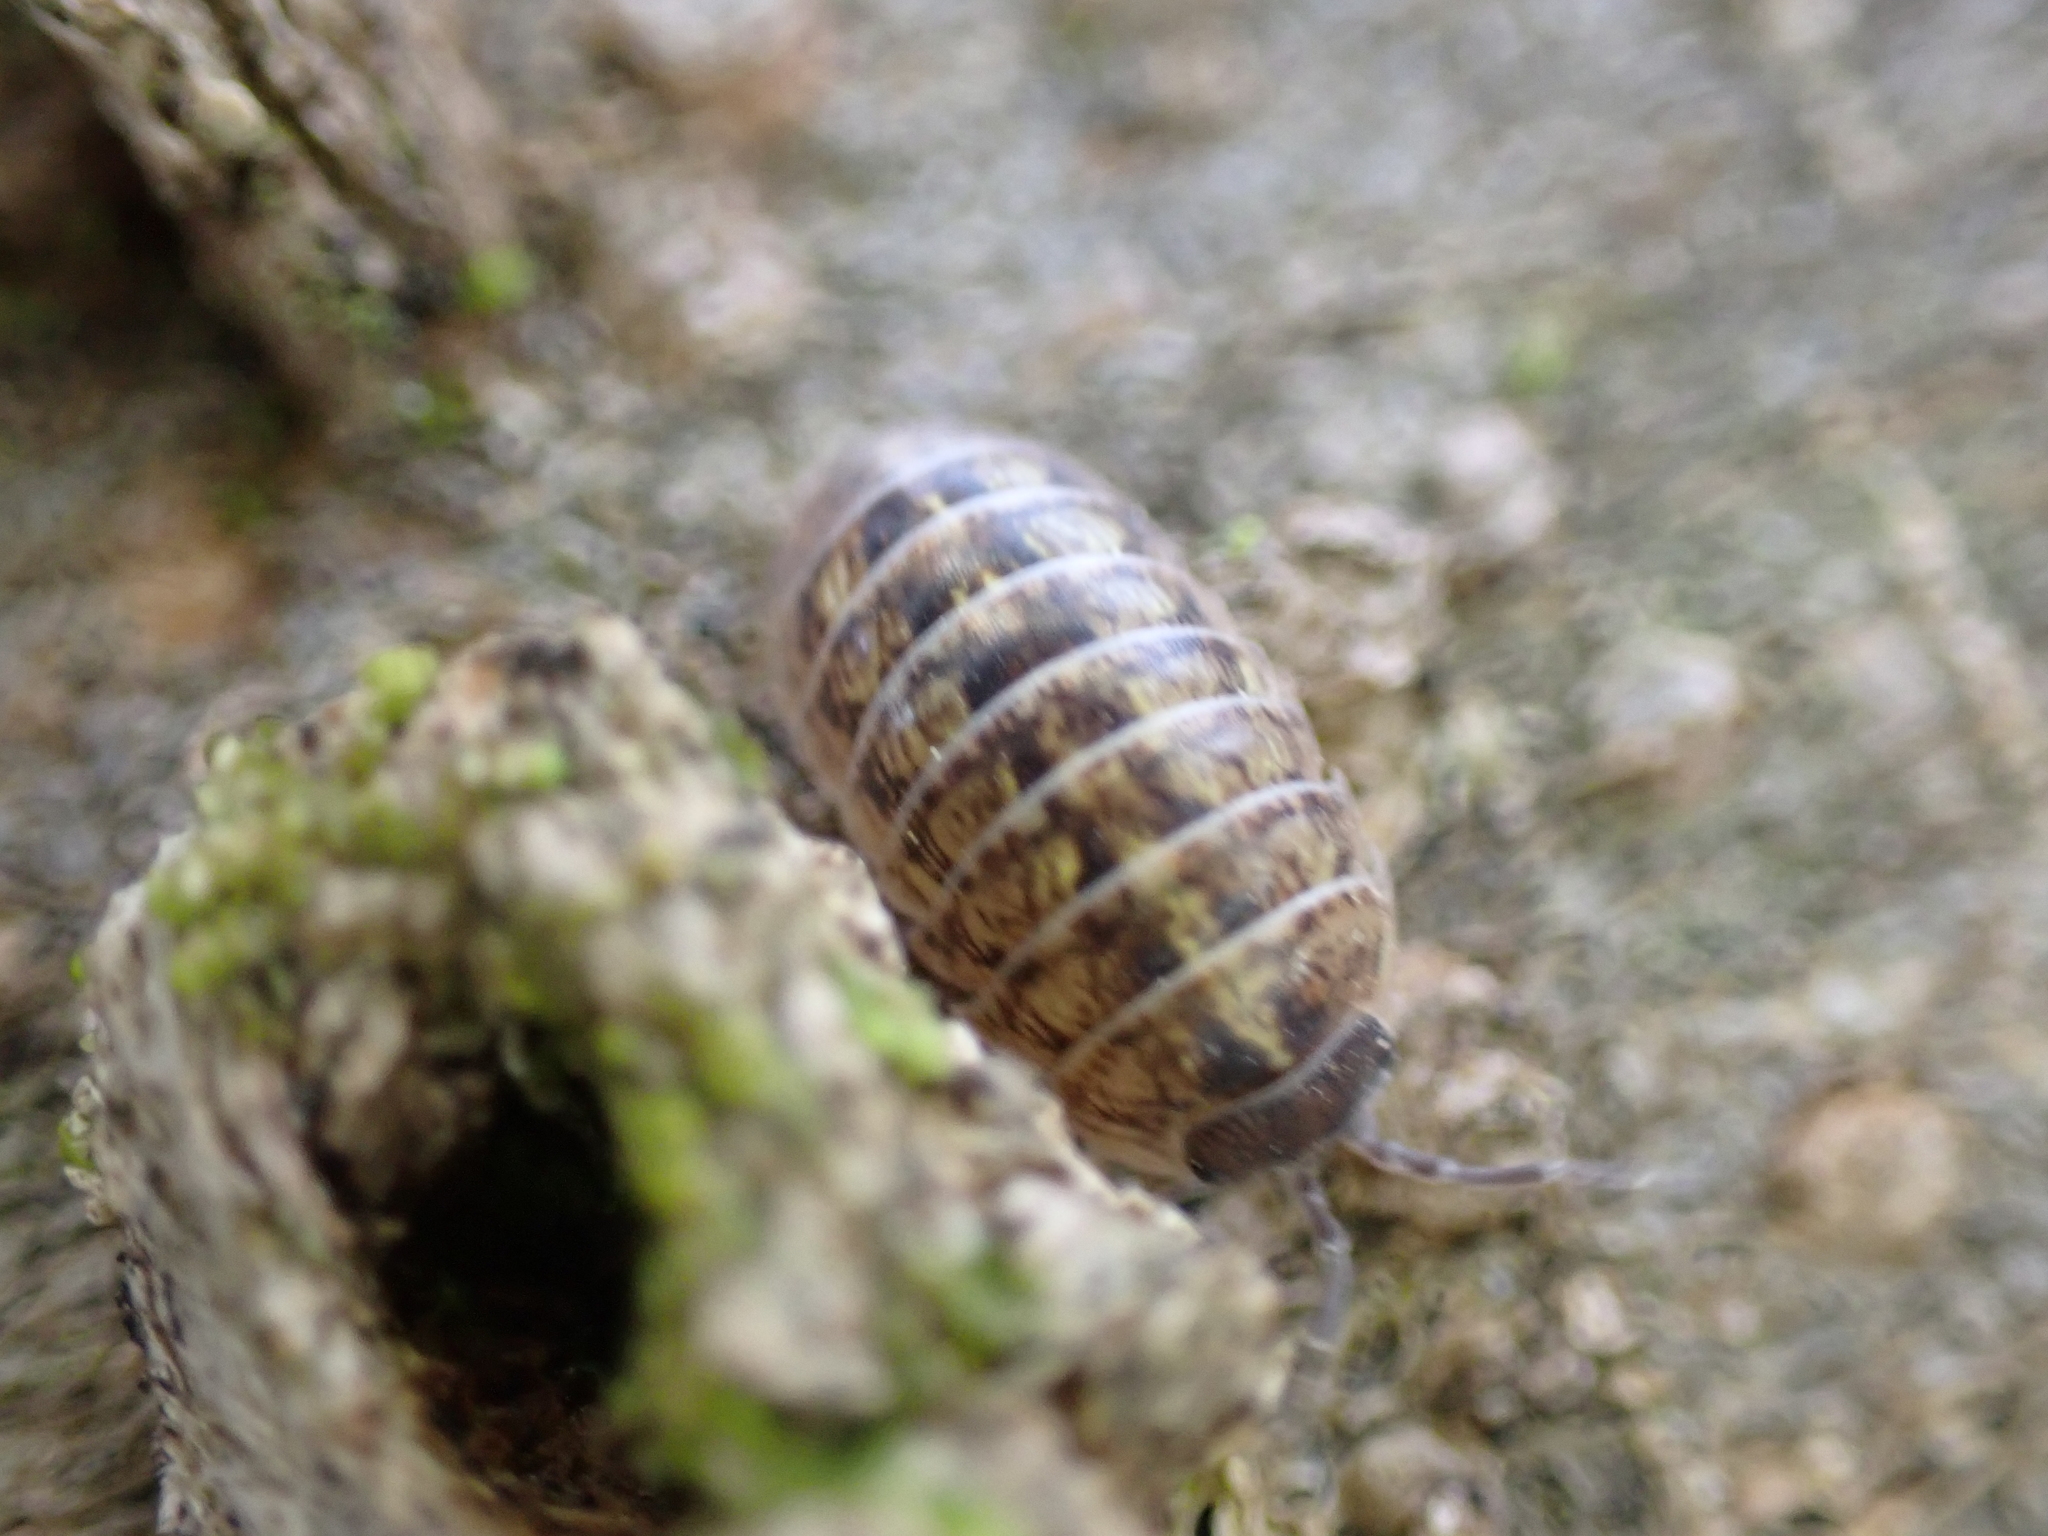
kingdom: Animalia
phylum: Arthropoda
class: Malacostraca
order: Isopoda
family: Armadillidiidae
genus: Armadillidium
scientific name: Armadillidium vulgare
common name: Common pill woodlouse
